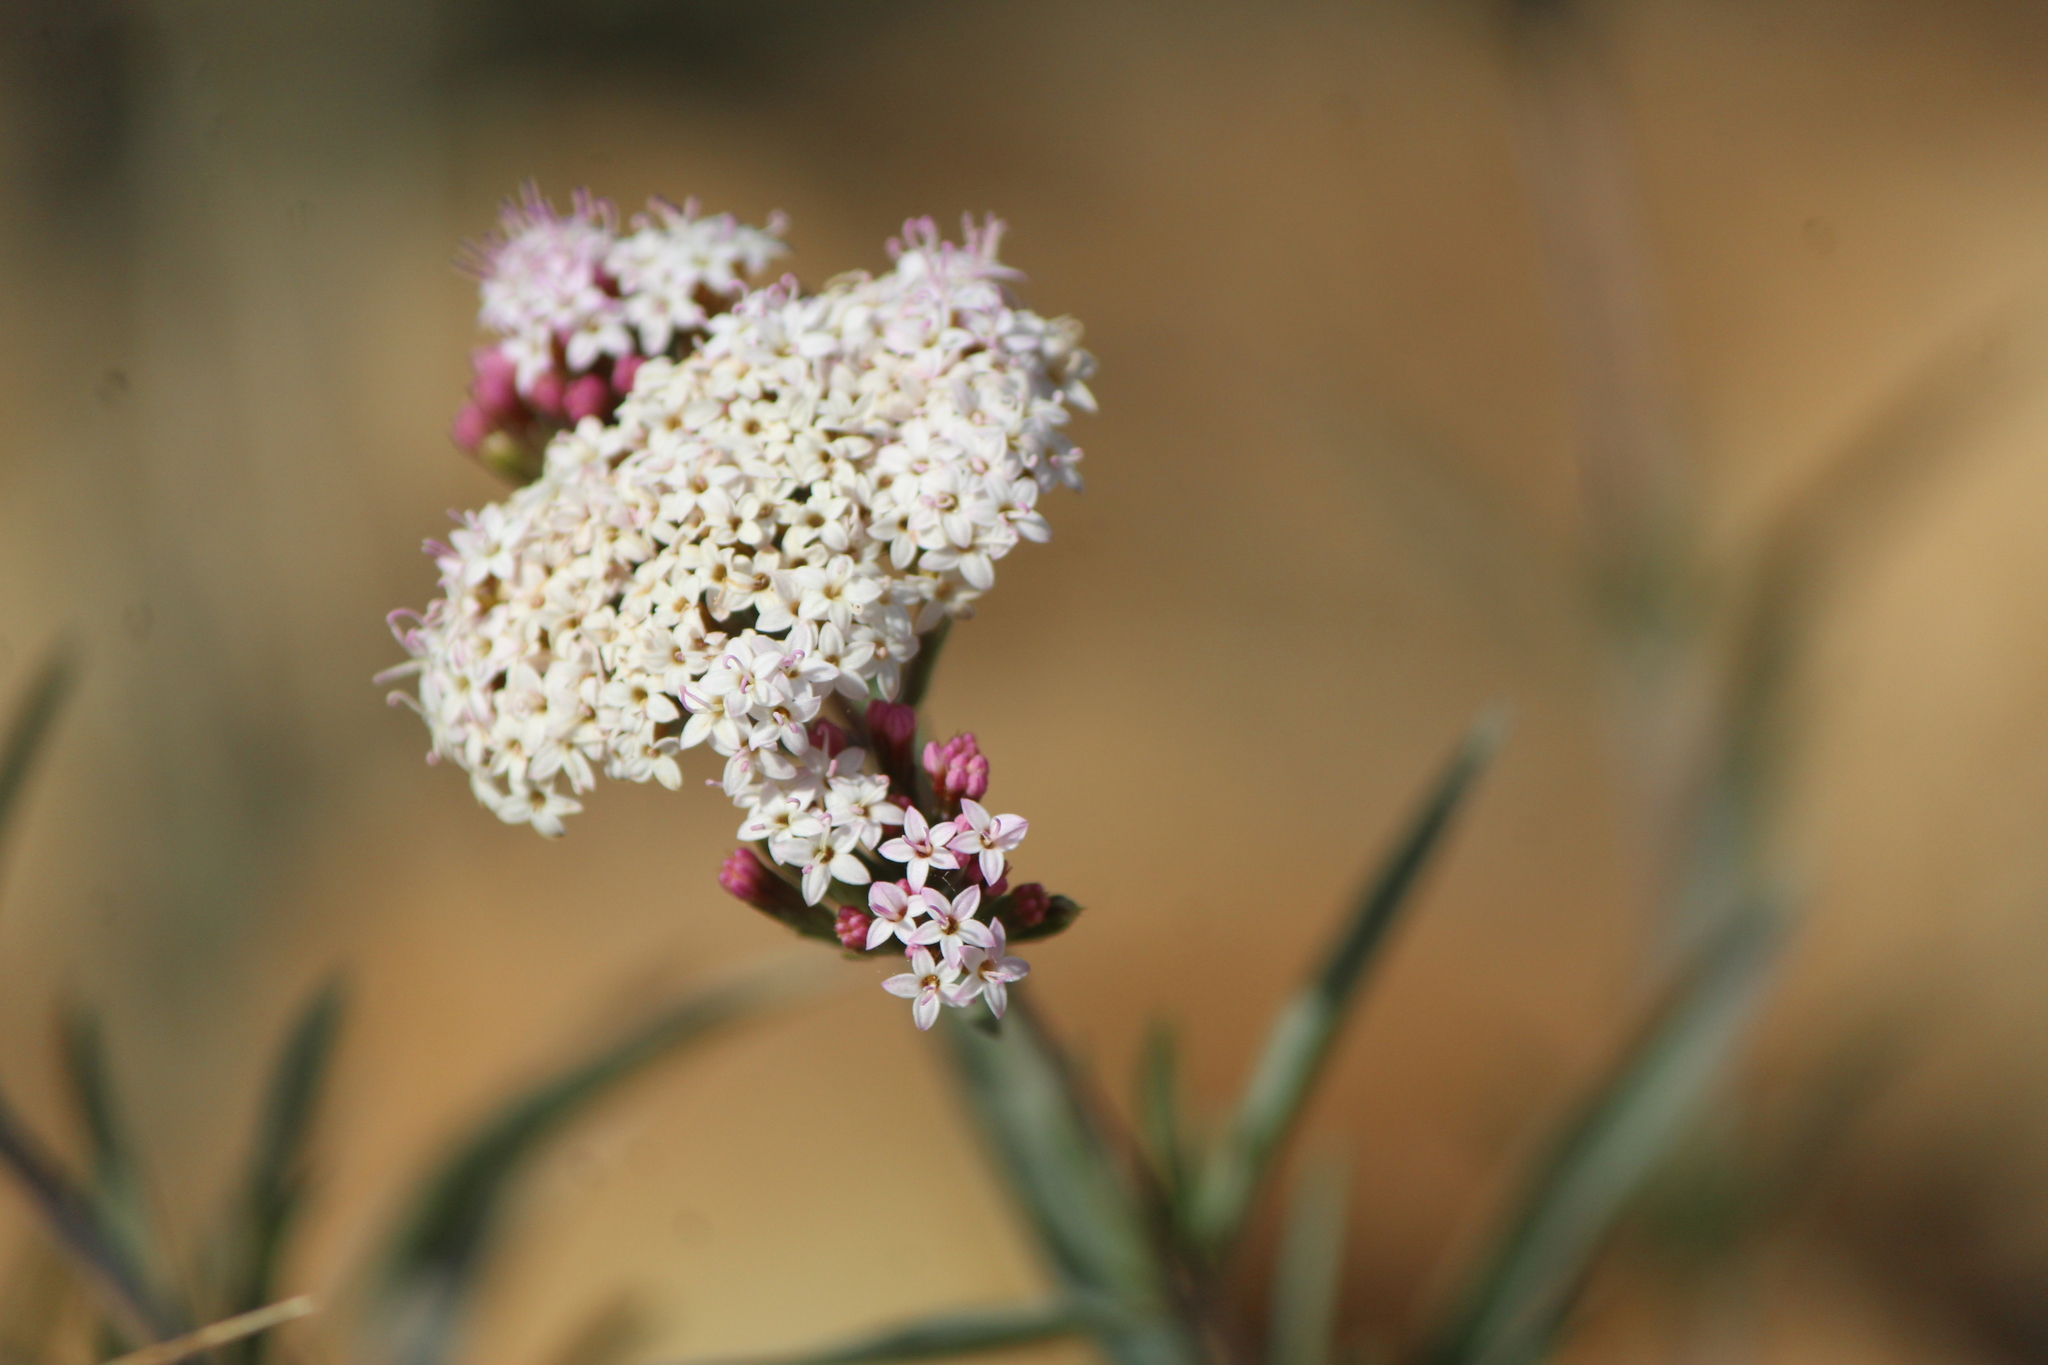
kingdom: Plantae
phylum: Tracheophyta
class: Magnoliopsida
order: Asterales
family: Asteraceae
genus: Stevia
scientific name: Stevia lucida
